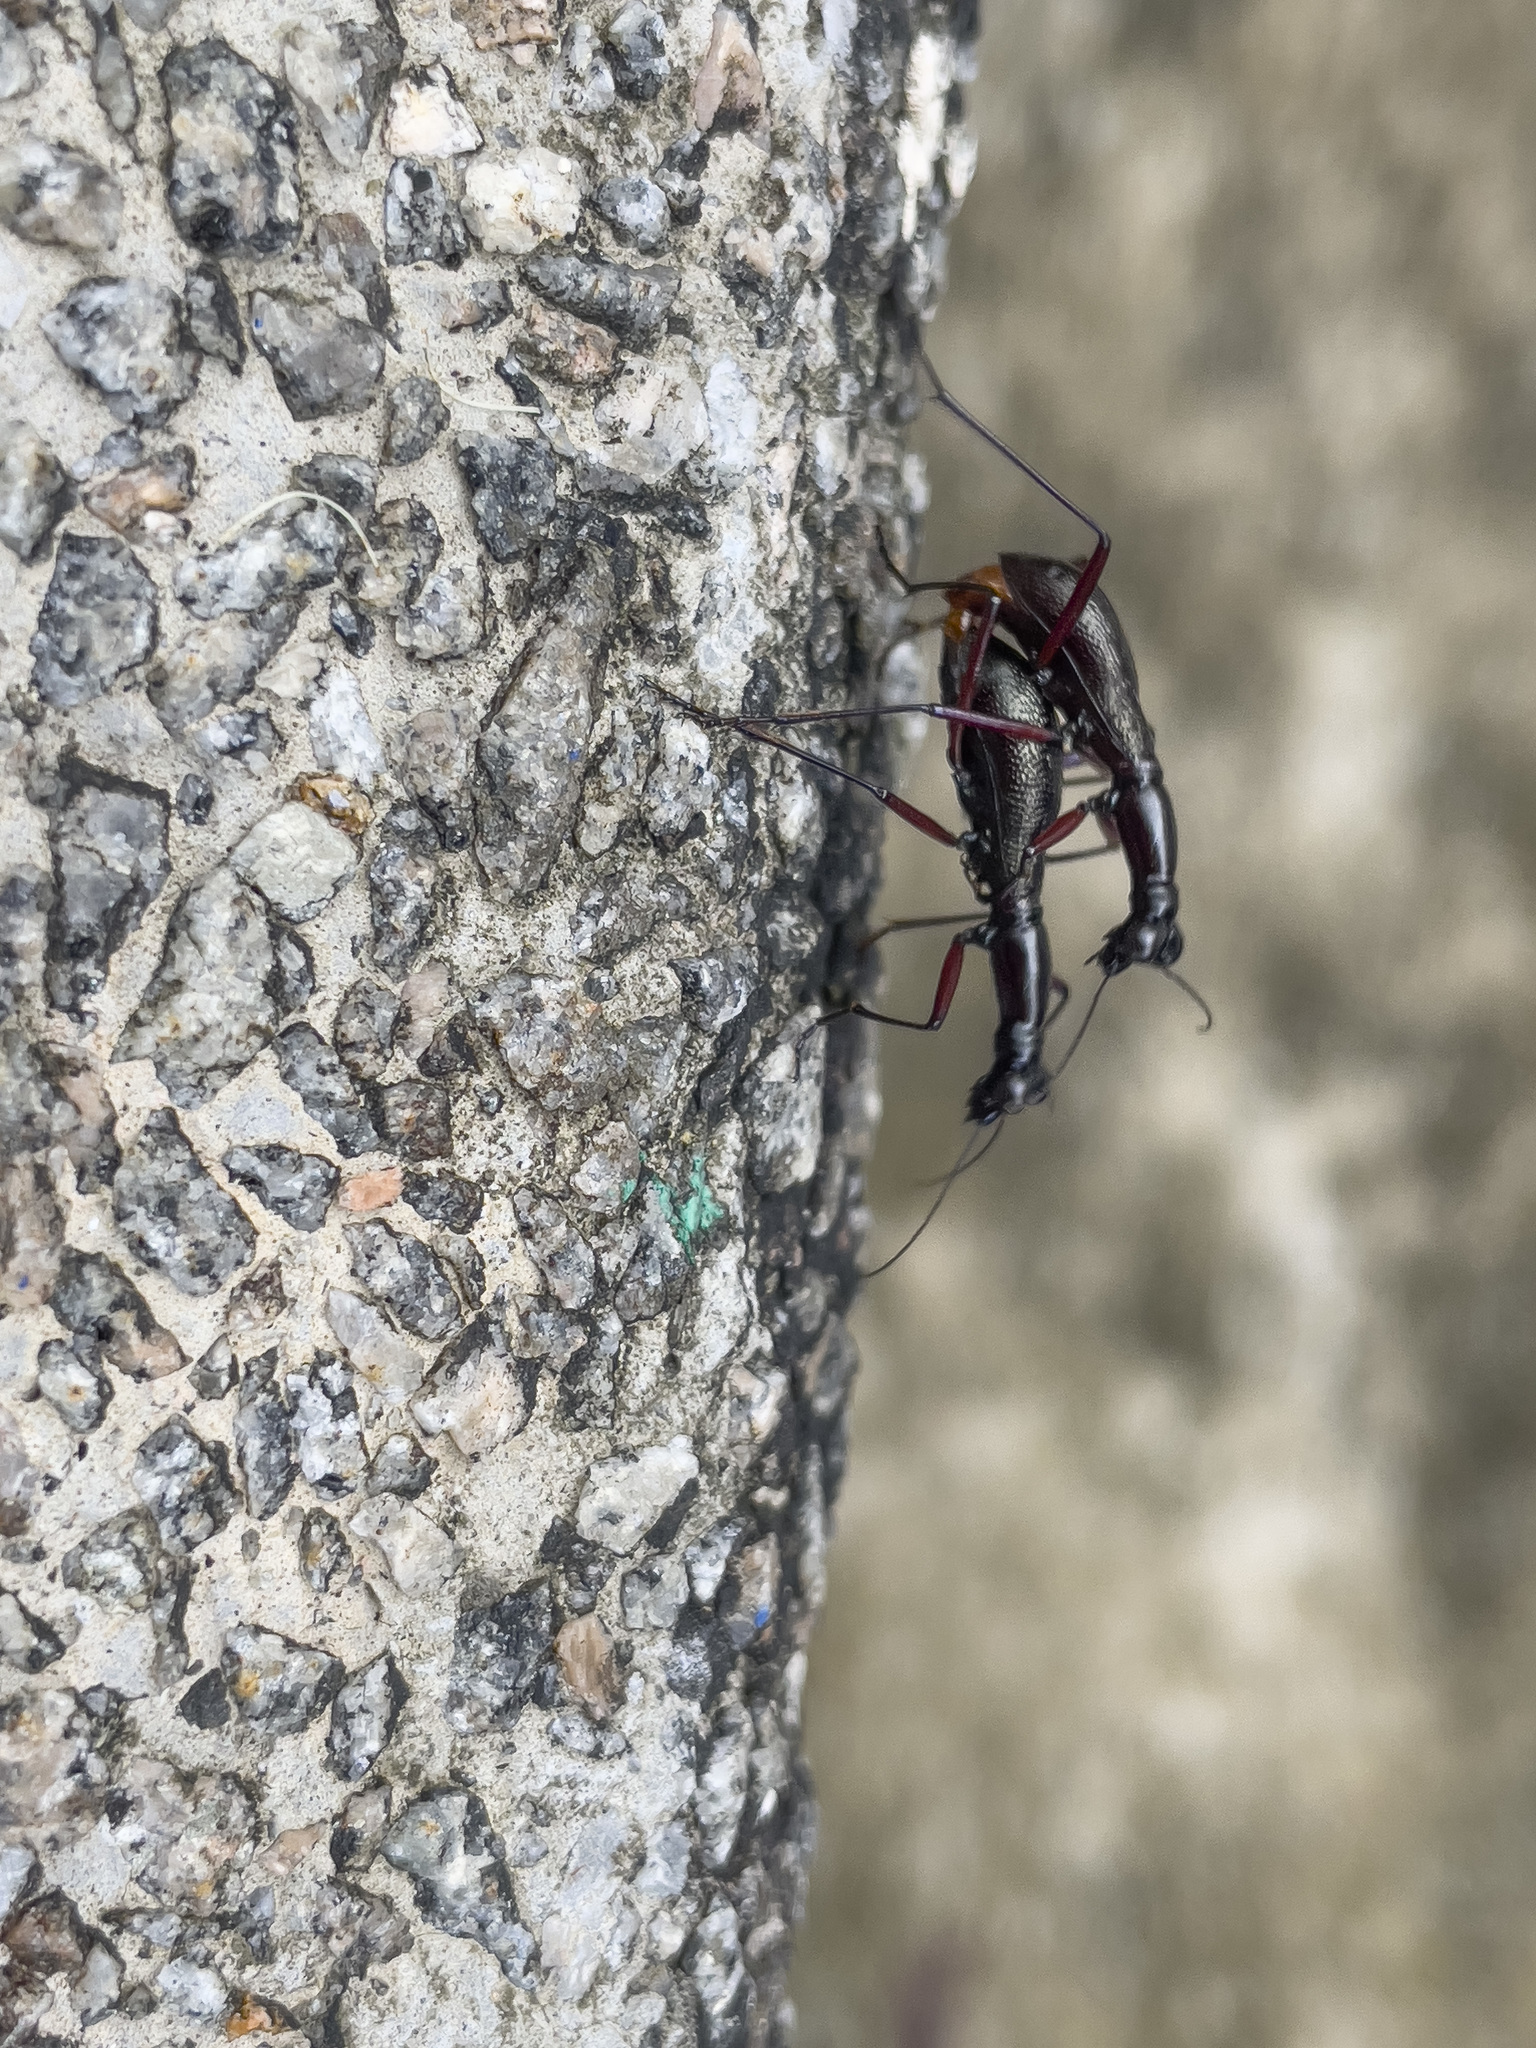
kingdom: Animalia
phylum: Arthropoda
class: Insecta
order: Coleoptera
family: Carabidae
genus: Tricondyla
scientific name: Tricondyla pulchripes
